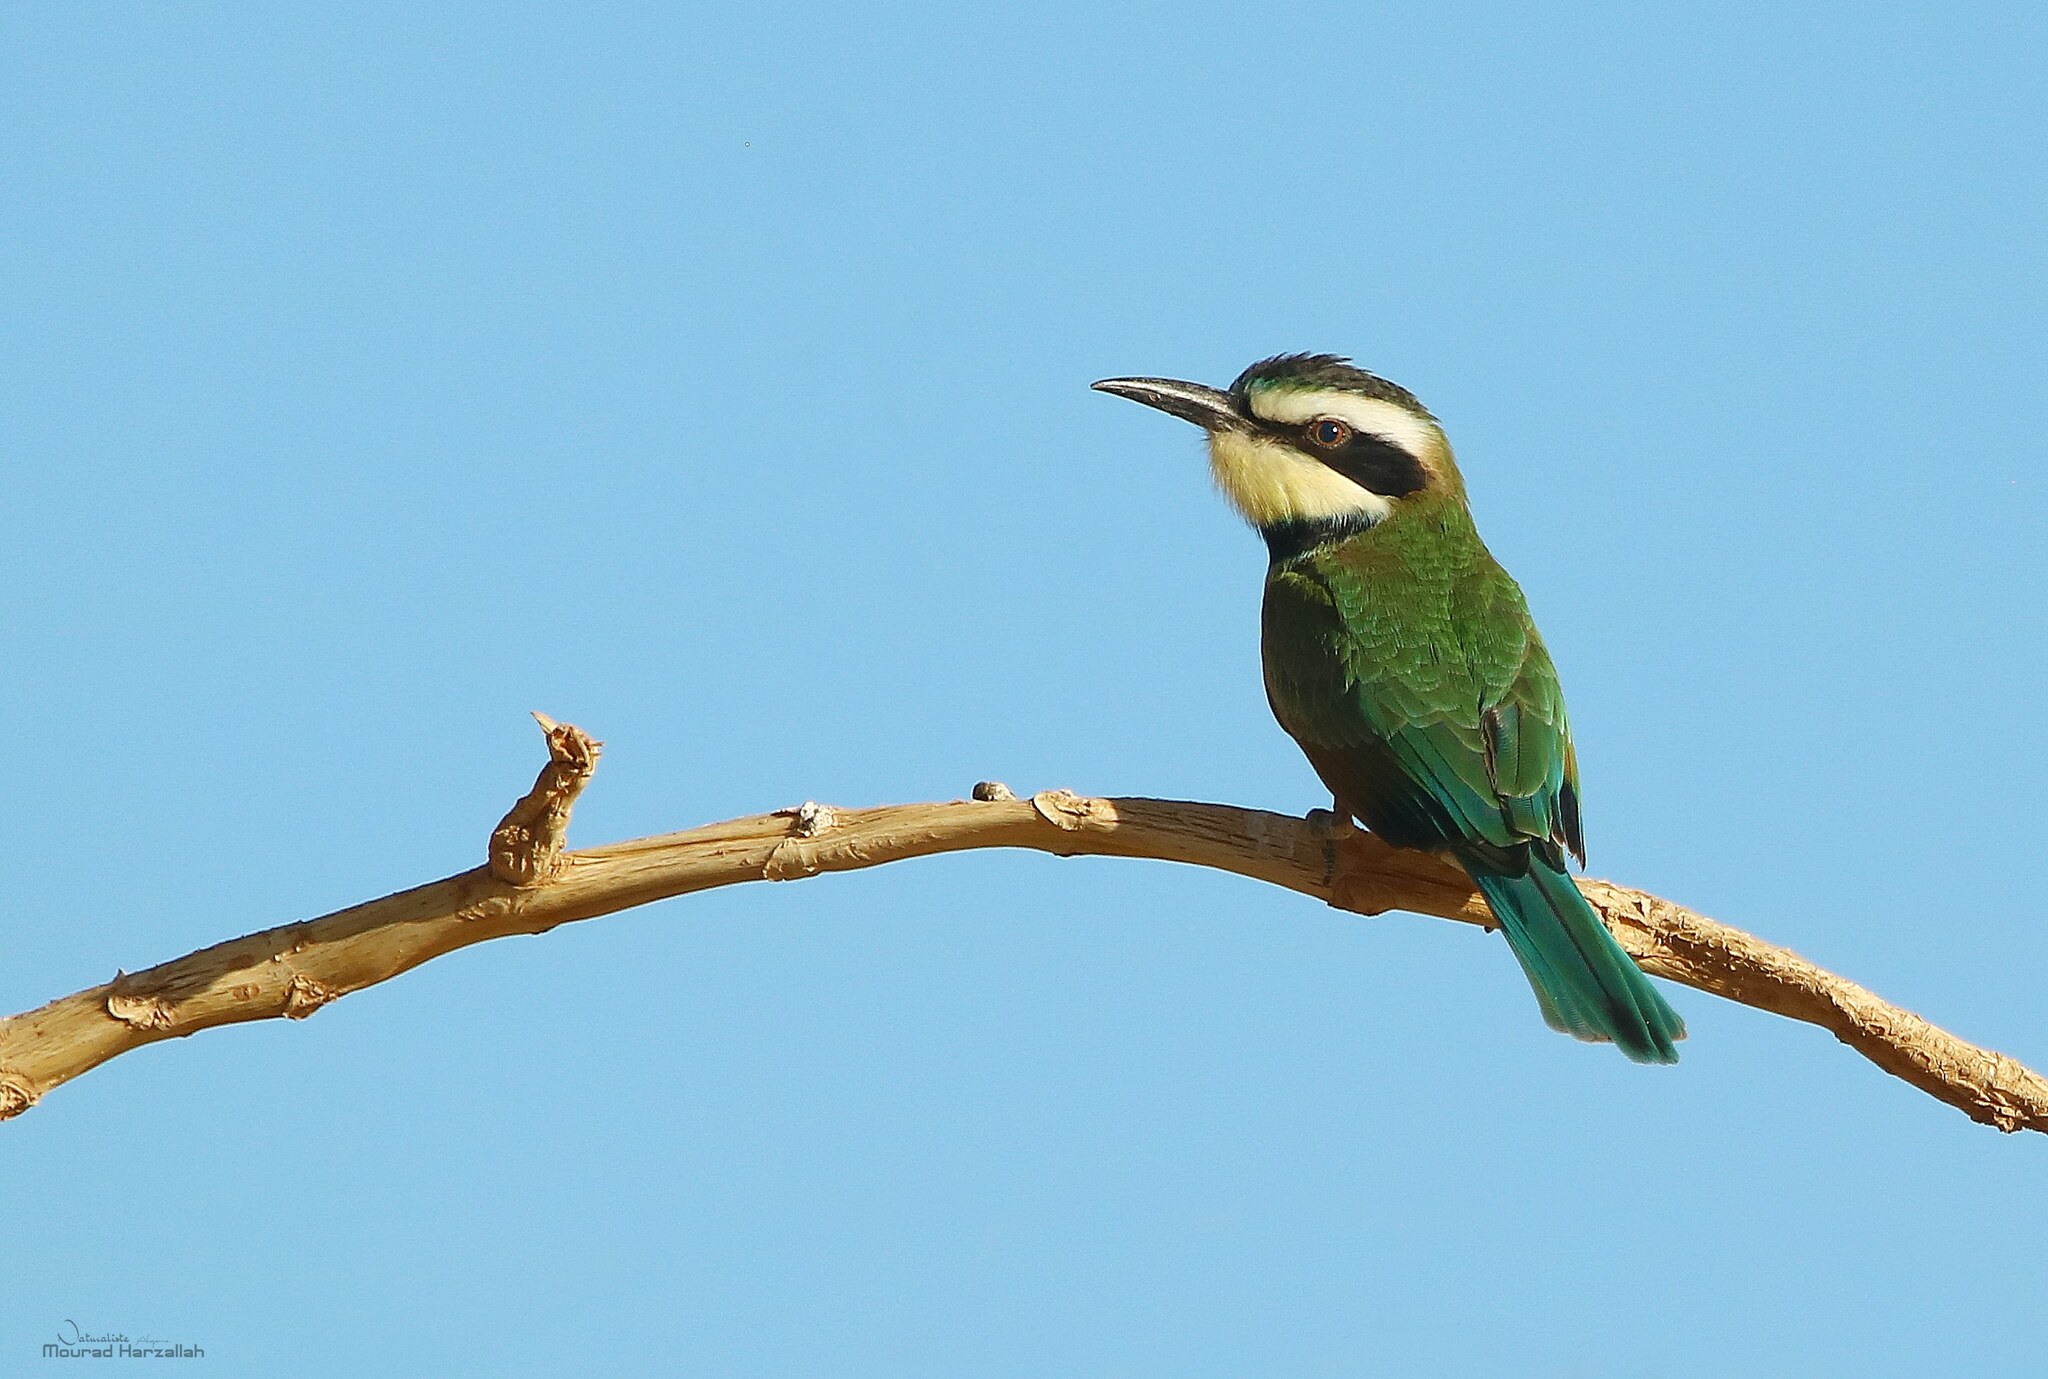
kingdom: Animalia
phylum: Chordata
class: Aves
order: Coraciiformes
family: Meropidae
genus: Merops
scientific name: Merops albicollis
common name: White-throated bee-eater
